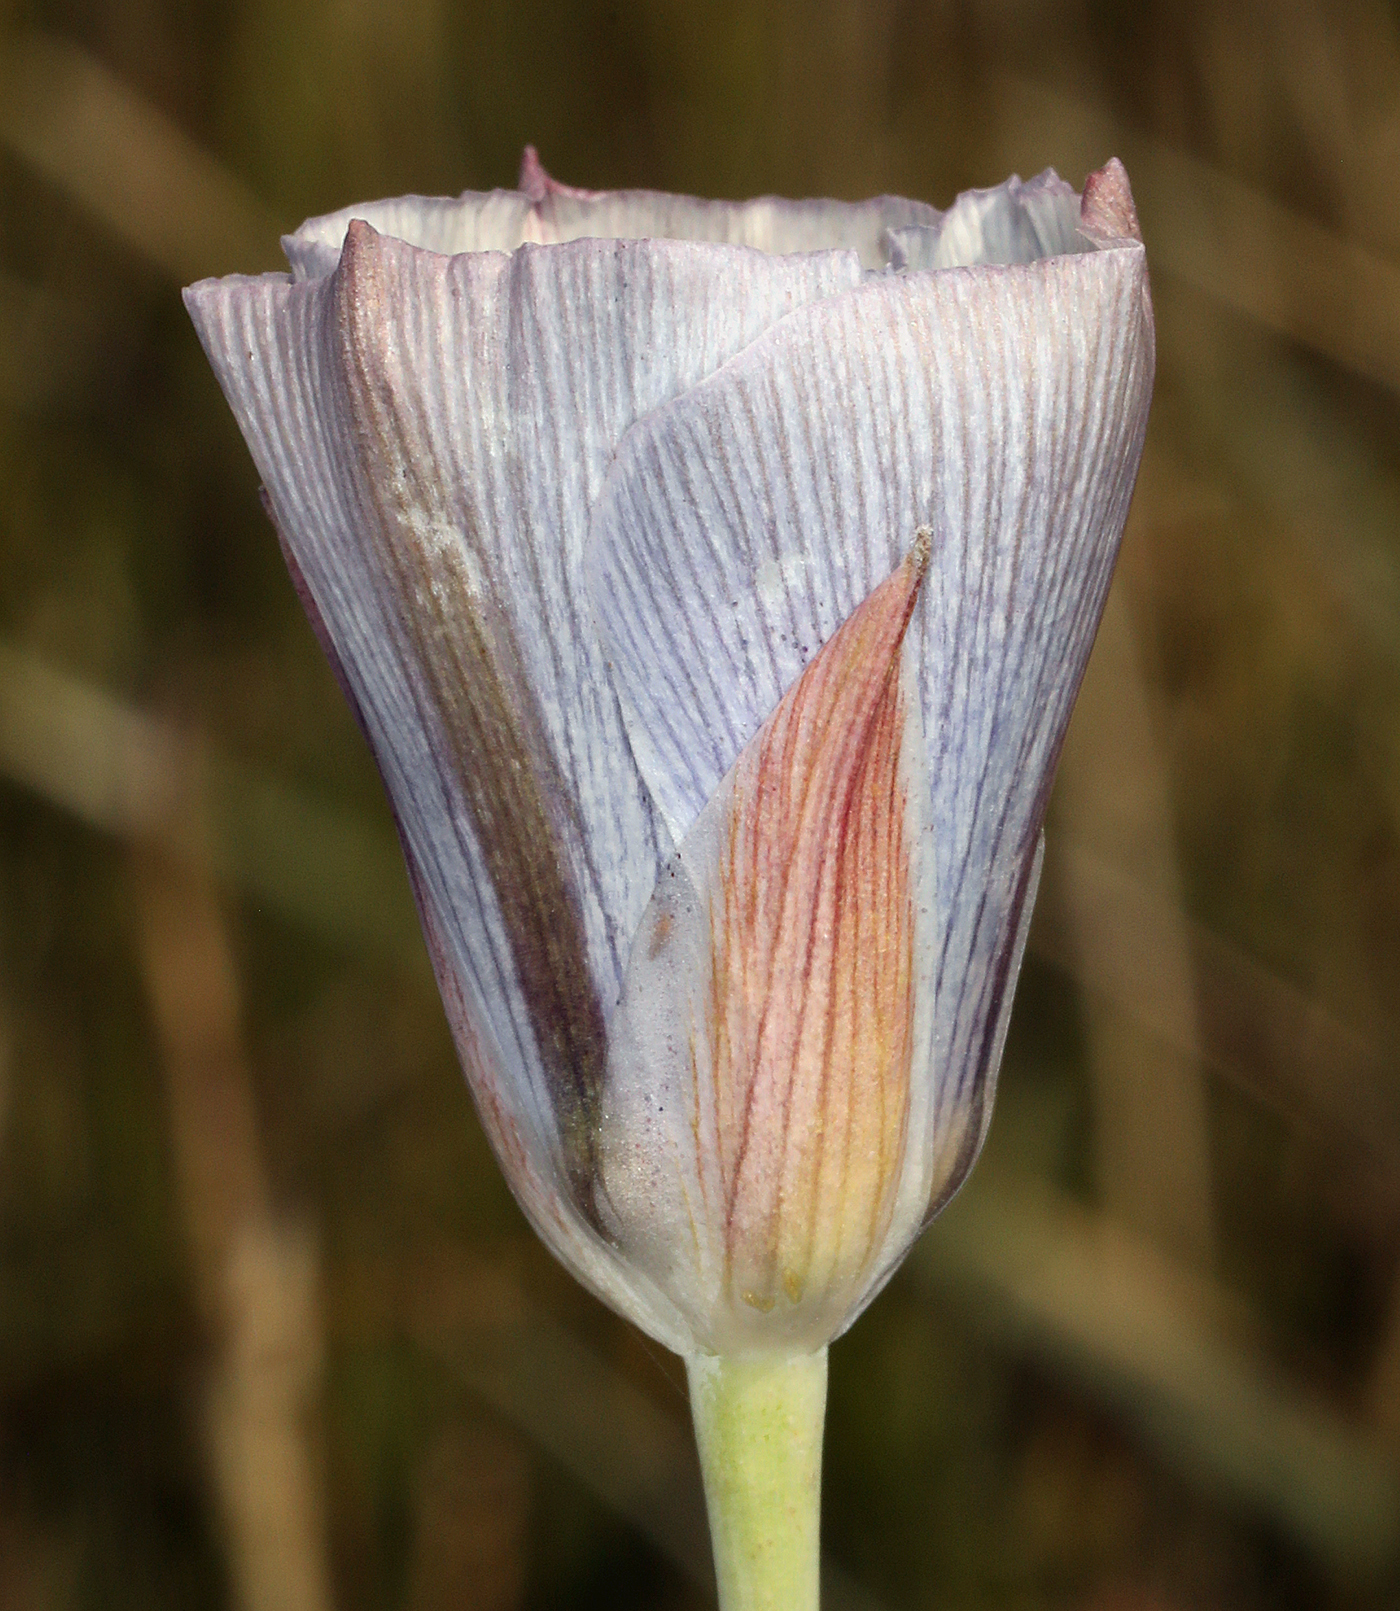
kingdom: Plantae
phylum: Tracheophyta
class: Liliopsida
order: Liliales
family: Liliaceae
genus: Calochortus
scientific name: Calochortus excavatus
